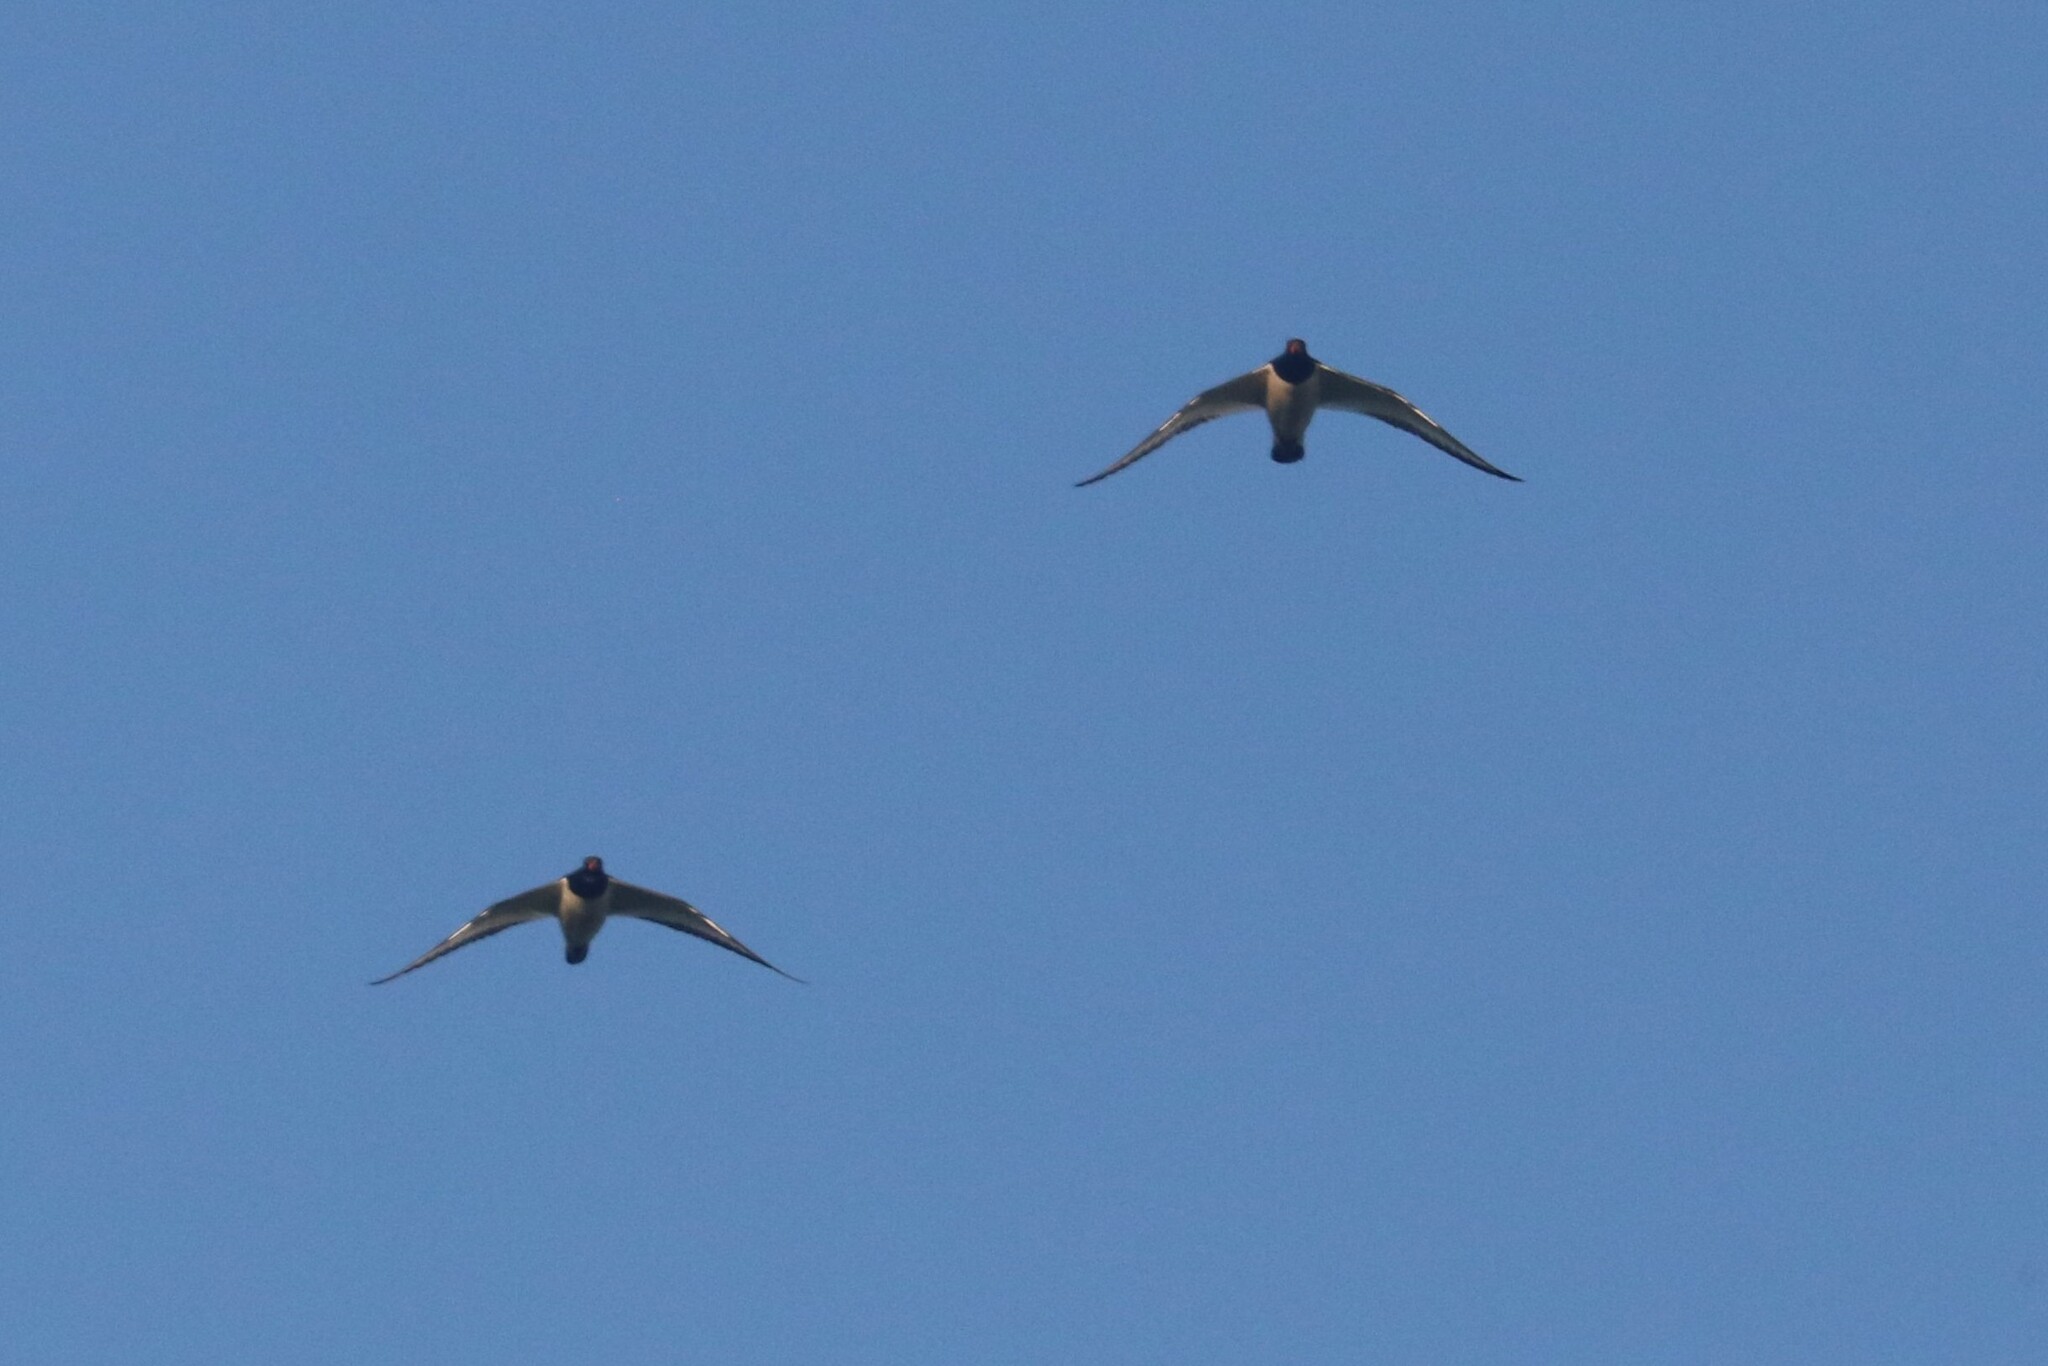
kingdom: Animalia
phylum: Chordata
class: Aves
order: Charadriiformes
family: Haematopodidae
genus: Haematopus
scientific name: Haematopus ostralegus
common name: Eurasian oystercatcher
